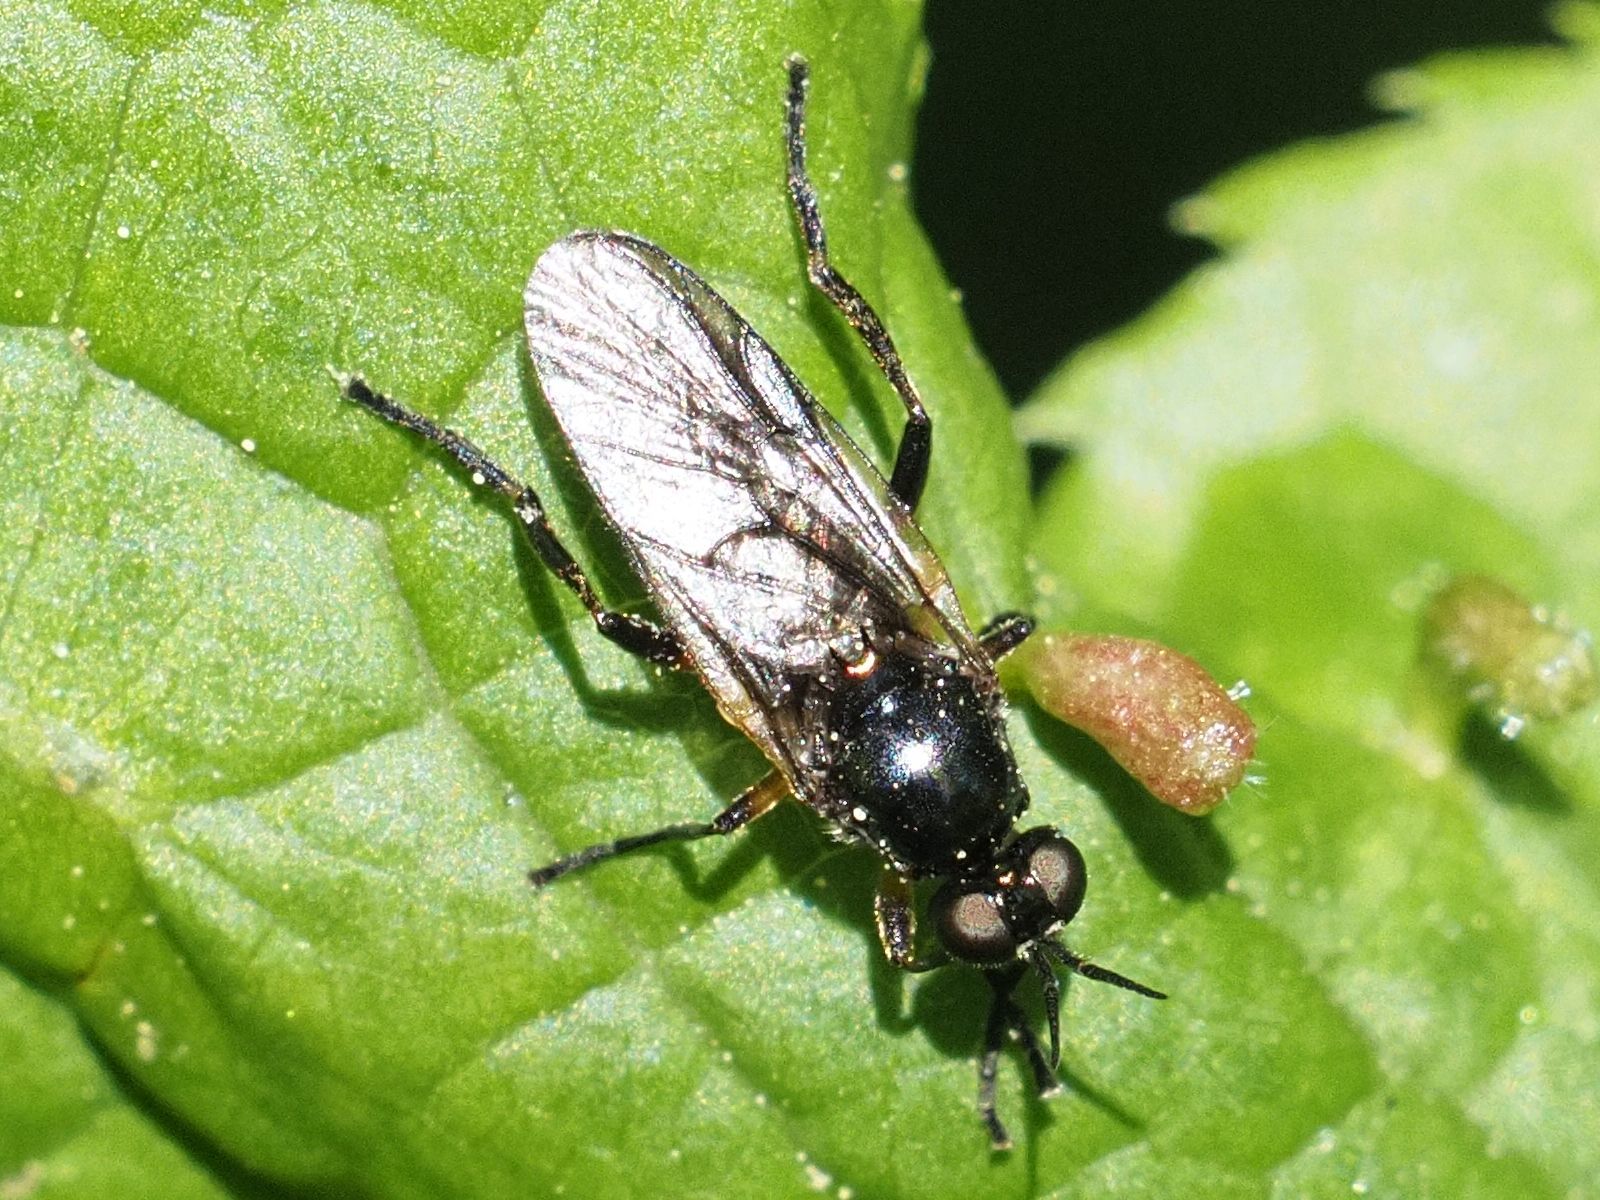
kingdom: Animalia
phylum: Arthropoda
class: Insecta
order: Diptera
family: Stratiomyidae
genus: Actina
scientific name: Actina chalybea
